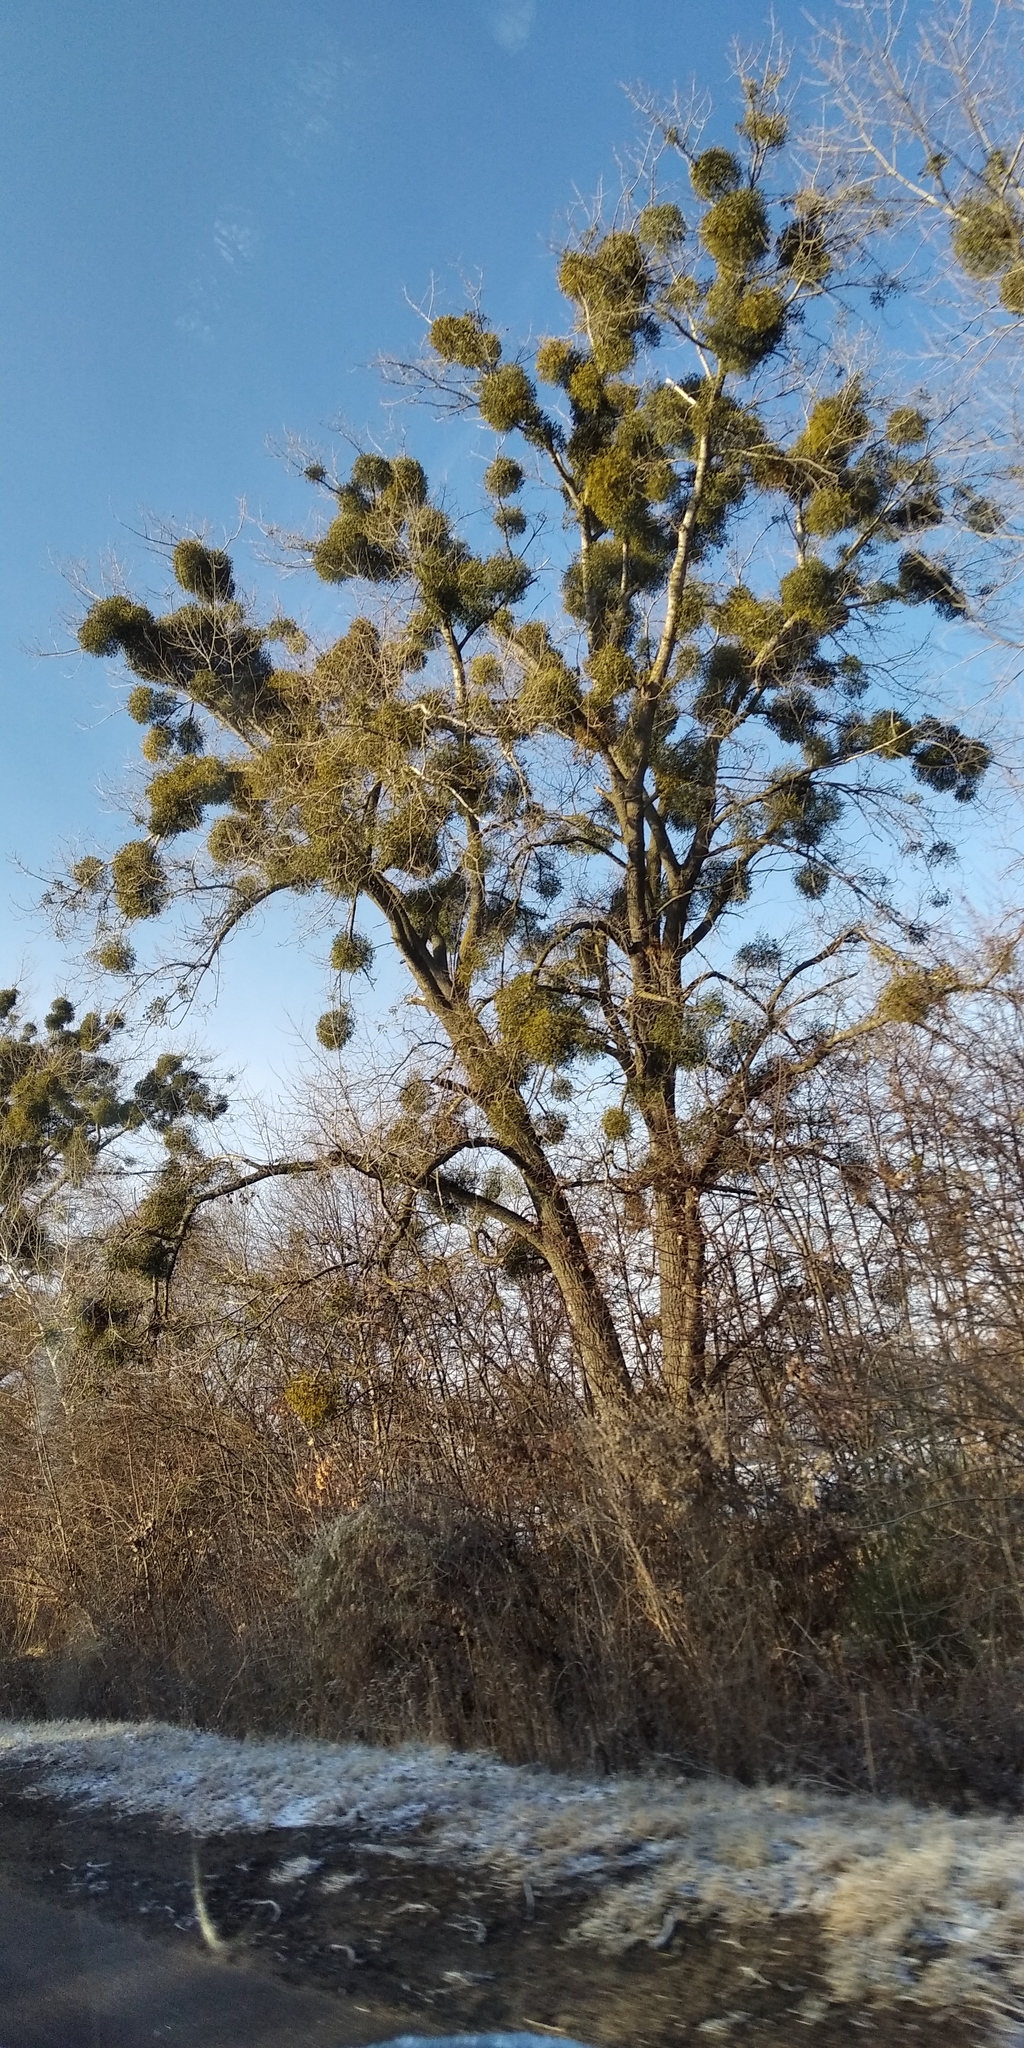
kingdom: Plantae
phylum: Tracheophyta
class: Magnoliopsida
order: Santalales
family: Viscaceae
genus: Viscum
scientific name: Viscum album
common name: Mistletoe
